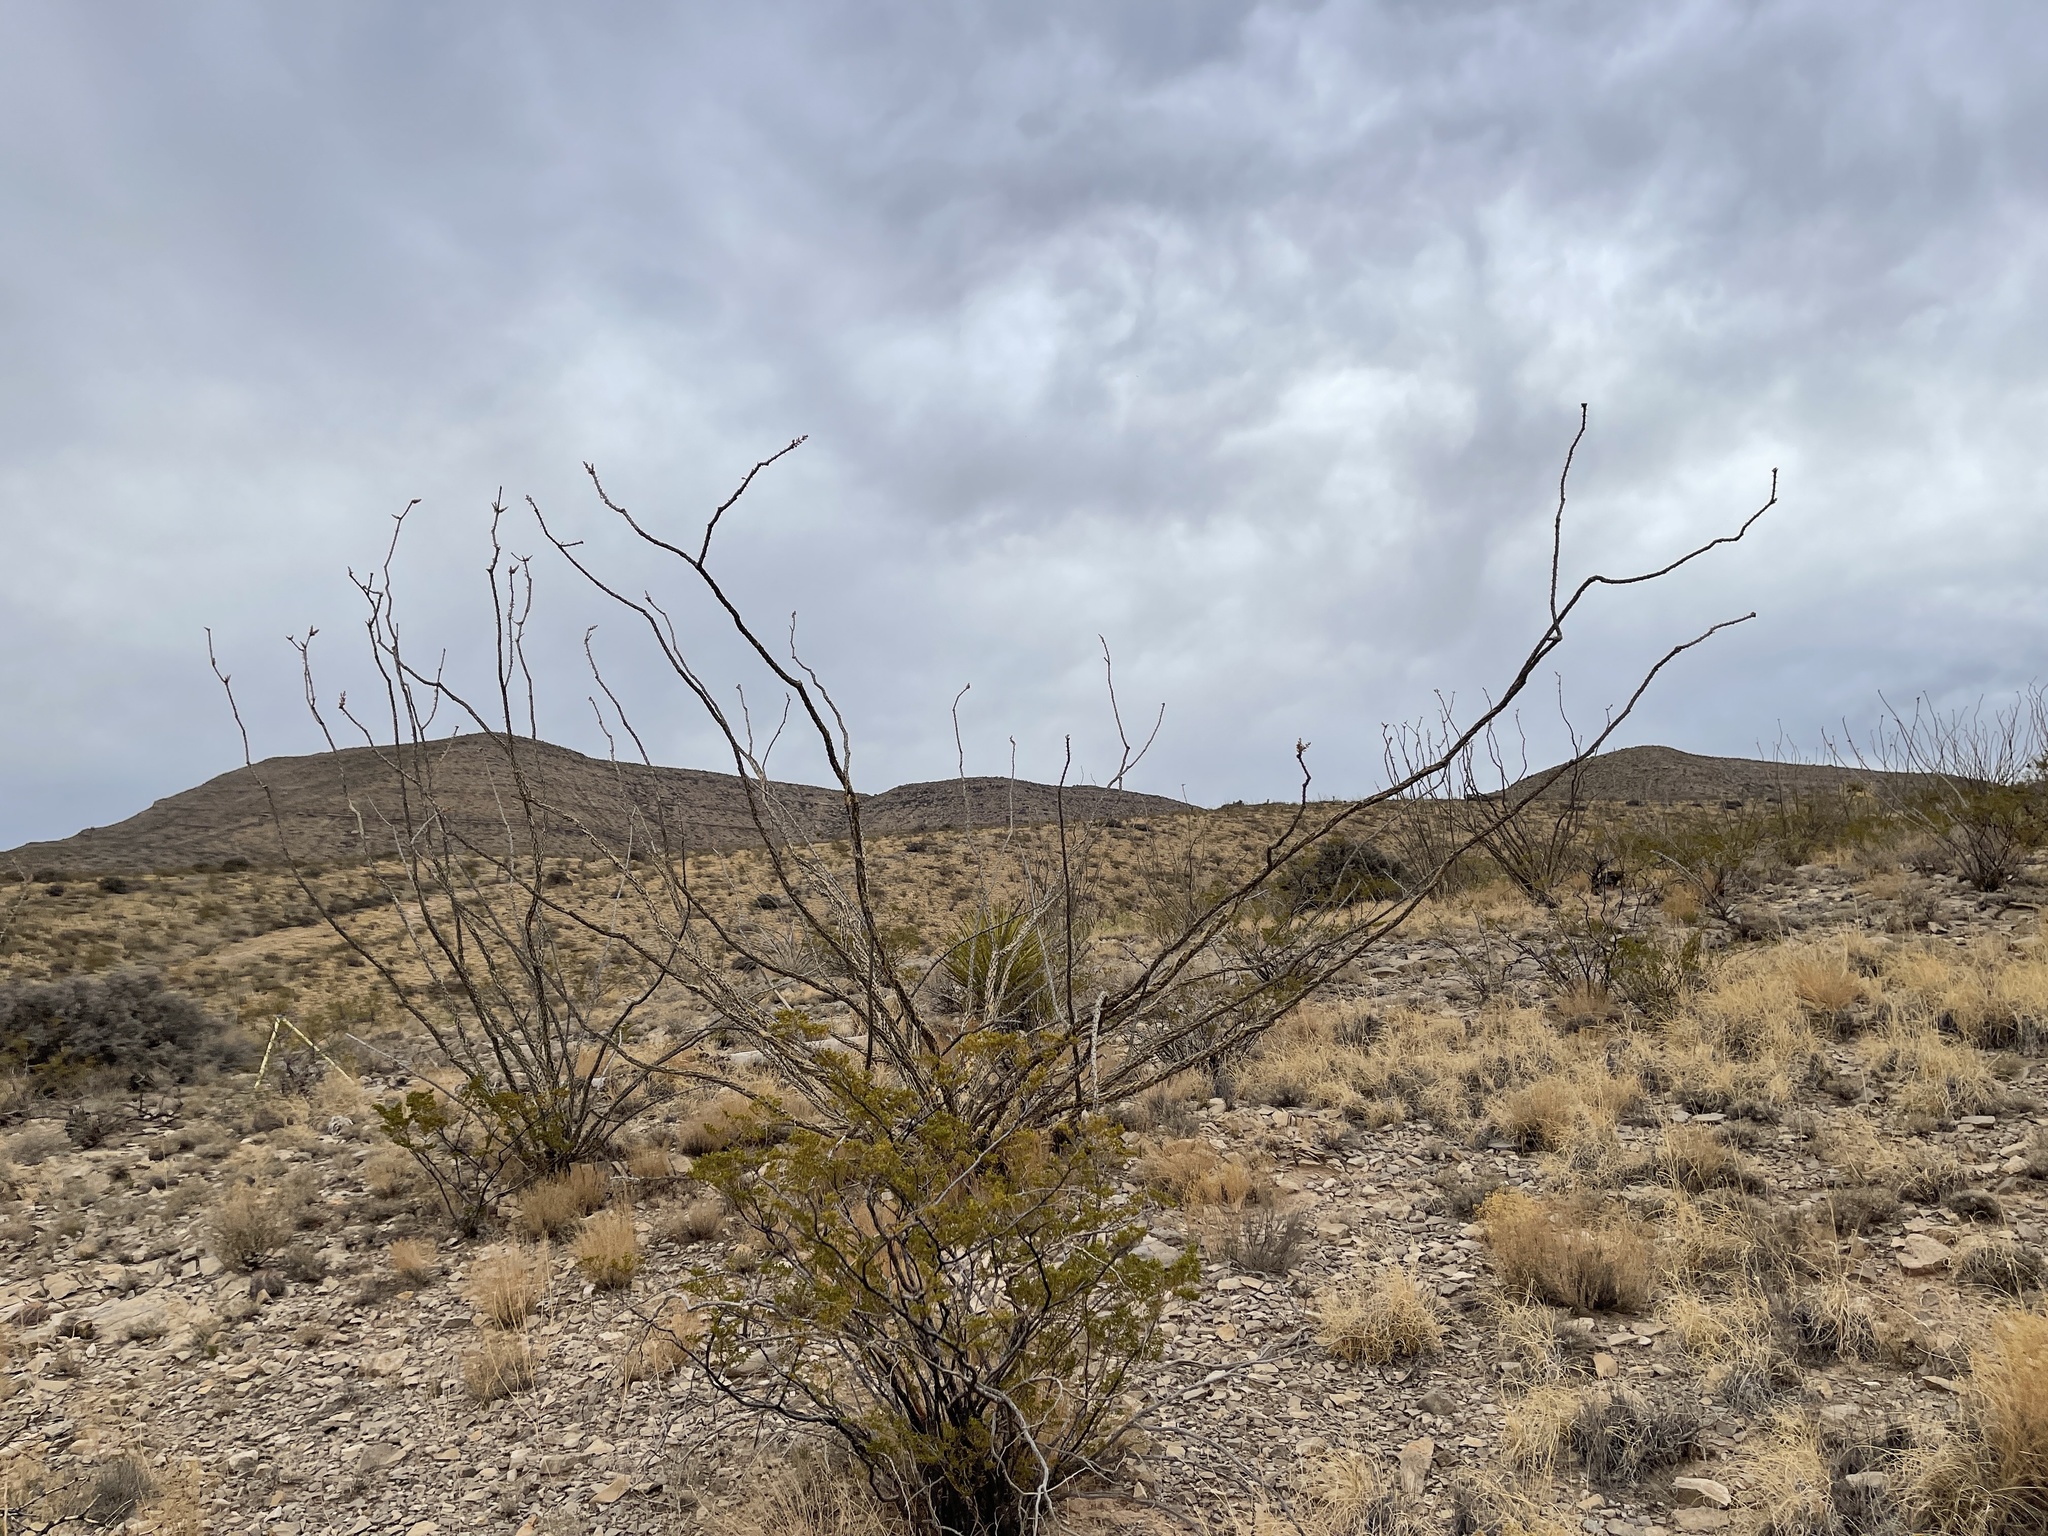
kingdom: Plantae
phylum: Tracheophyta
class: Magnoliopsida
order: Ericales
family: Fouquieriaceae
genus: Fouquieria
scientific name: Fouquieria splendens
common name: Vine-cactus
